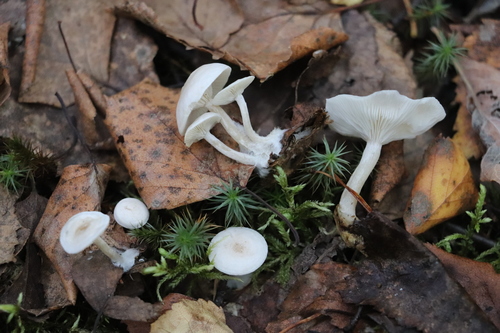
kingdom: Fungi
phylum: Basidiomycota
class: Agaricomycetes
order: Agaricales
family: Tricholomataceae
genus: Clitocybe
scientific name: Clitocybe
